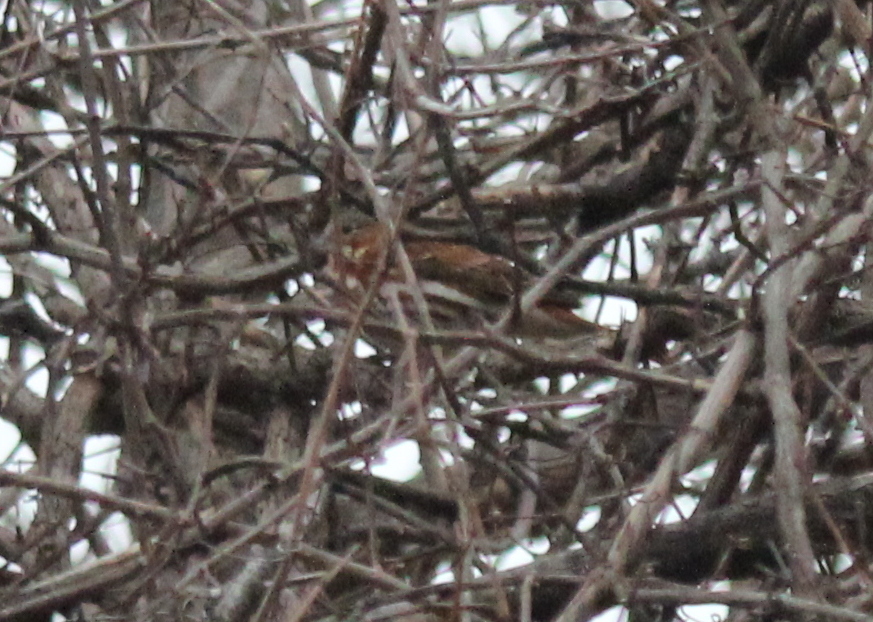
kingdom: Animalia
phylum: Chordata
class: Aves
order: Passeriformes
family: Passerellidae
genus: Passerella
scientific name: Passerella iliaca
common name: Fox sparrow
